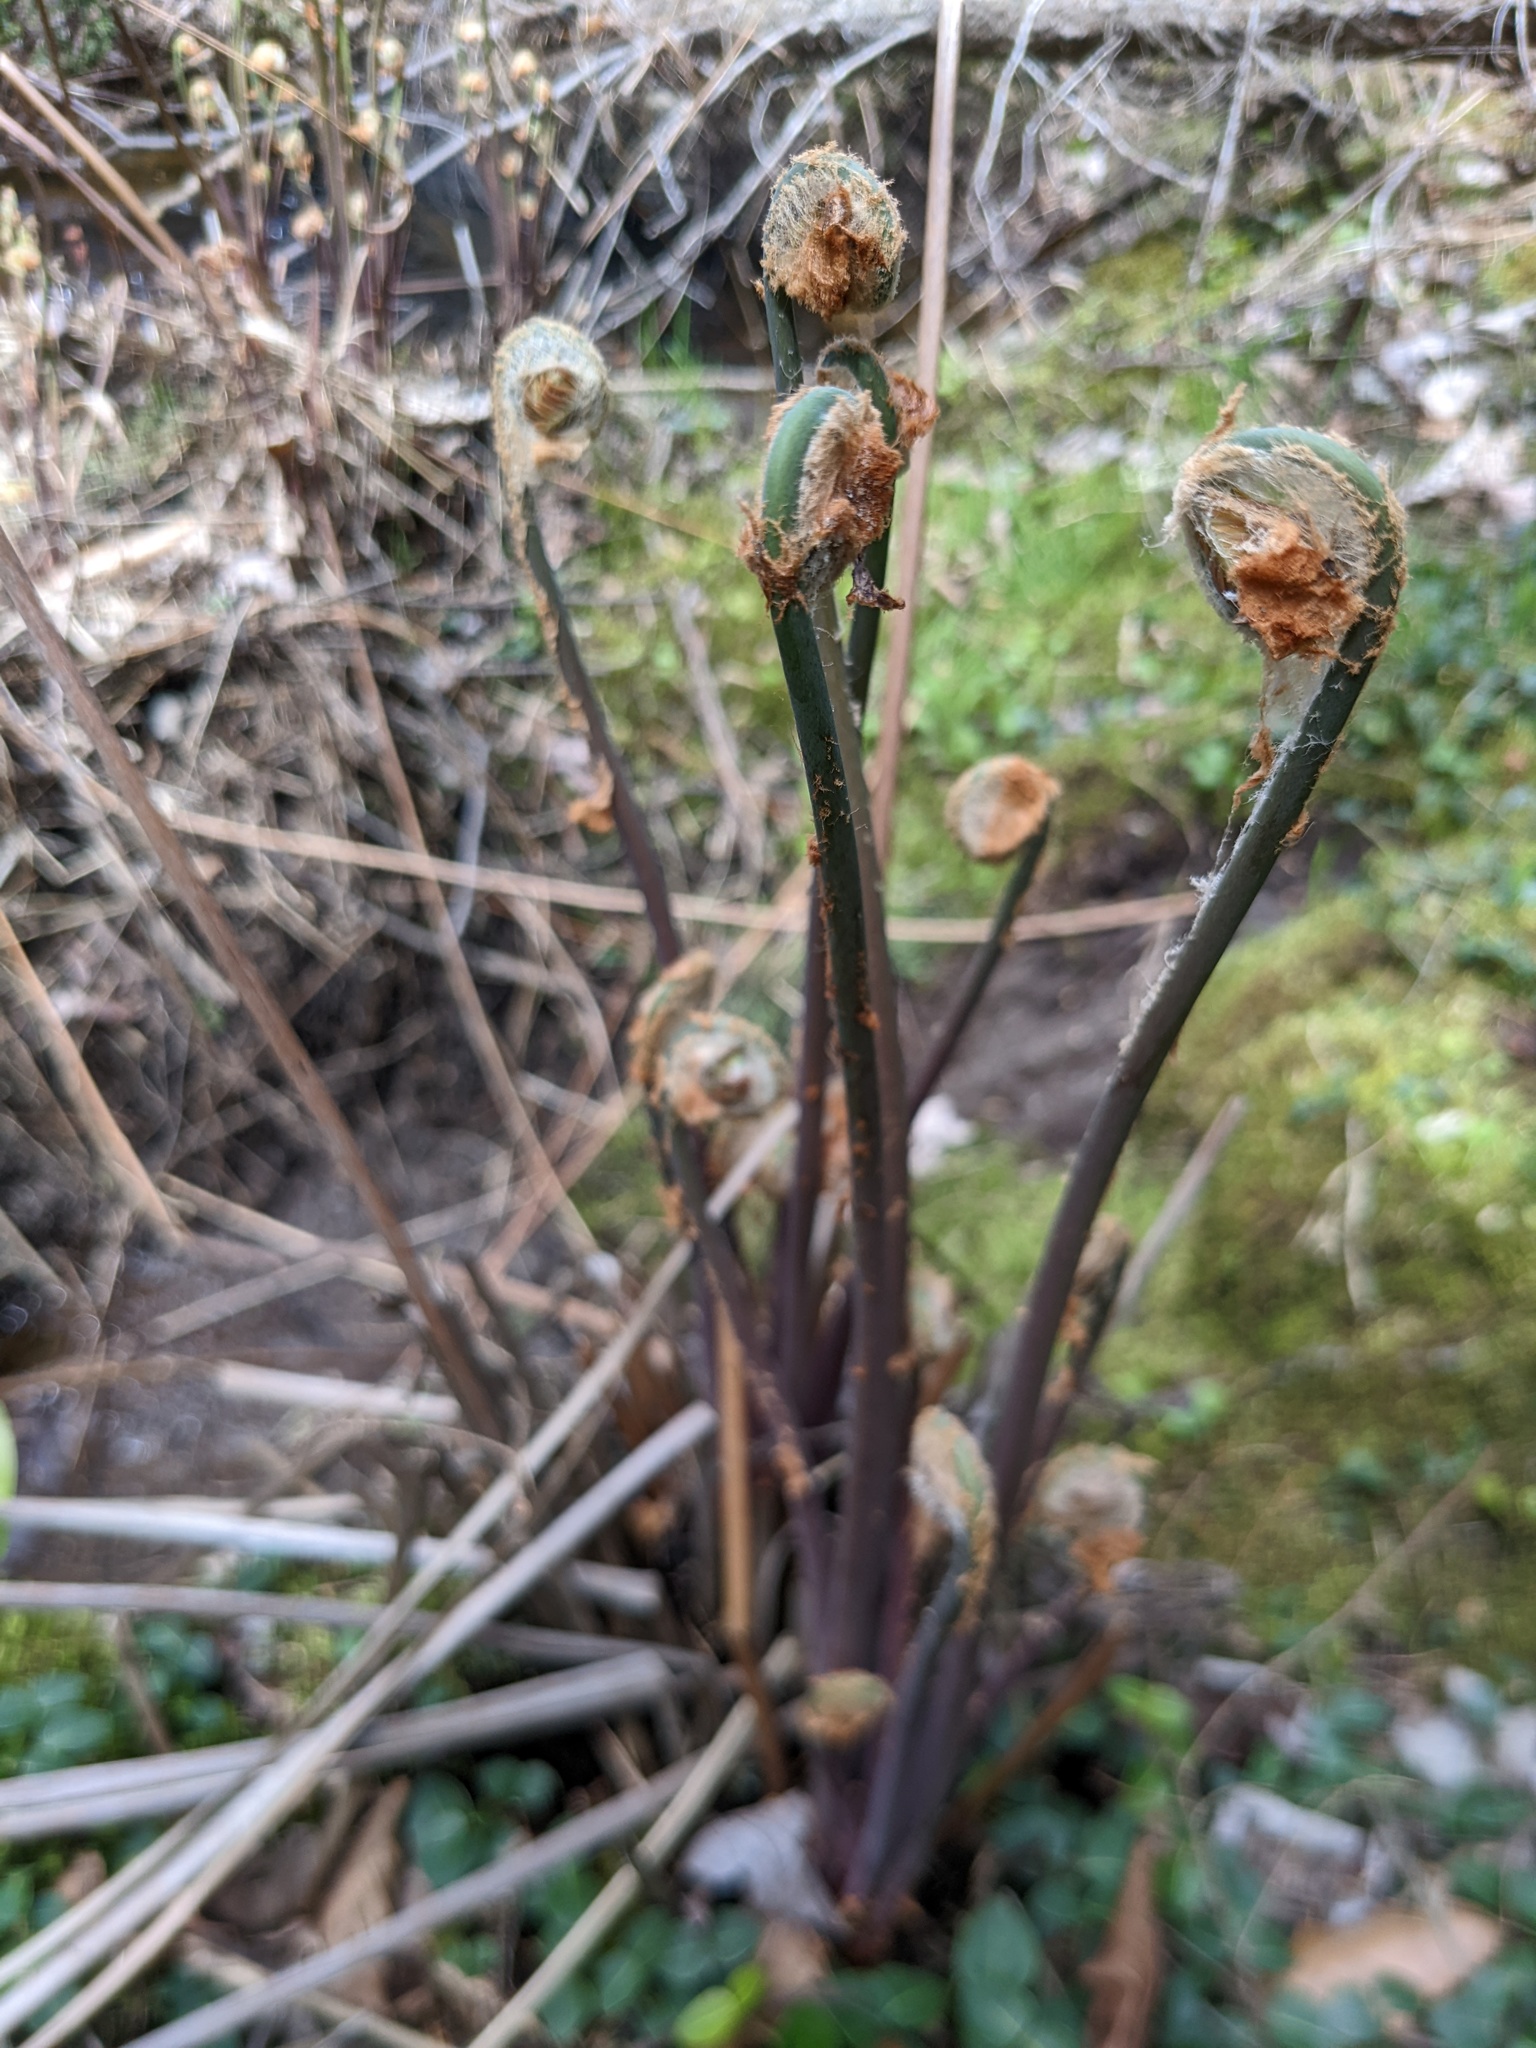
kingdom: Plantae
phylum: Tracheophyta
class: Polypodiopsida
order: Osmundales
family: Osmundaceae
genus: Osmunda
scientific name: Osmunda spectabilis
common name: American royal fern
